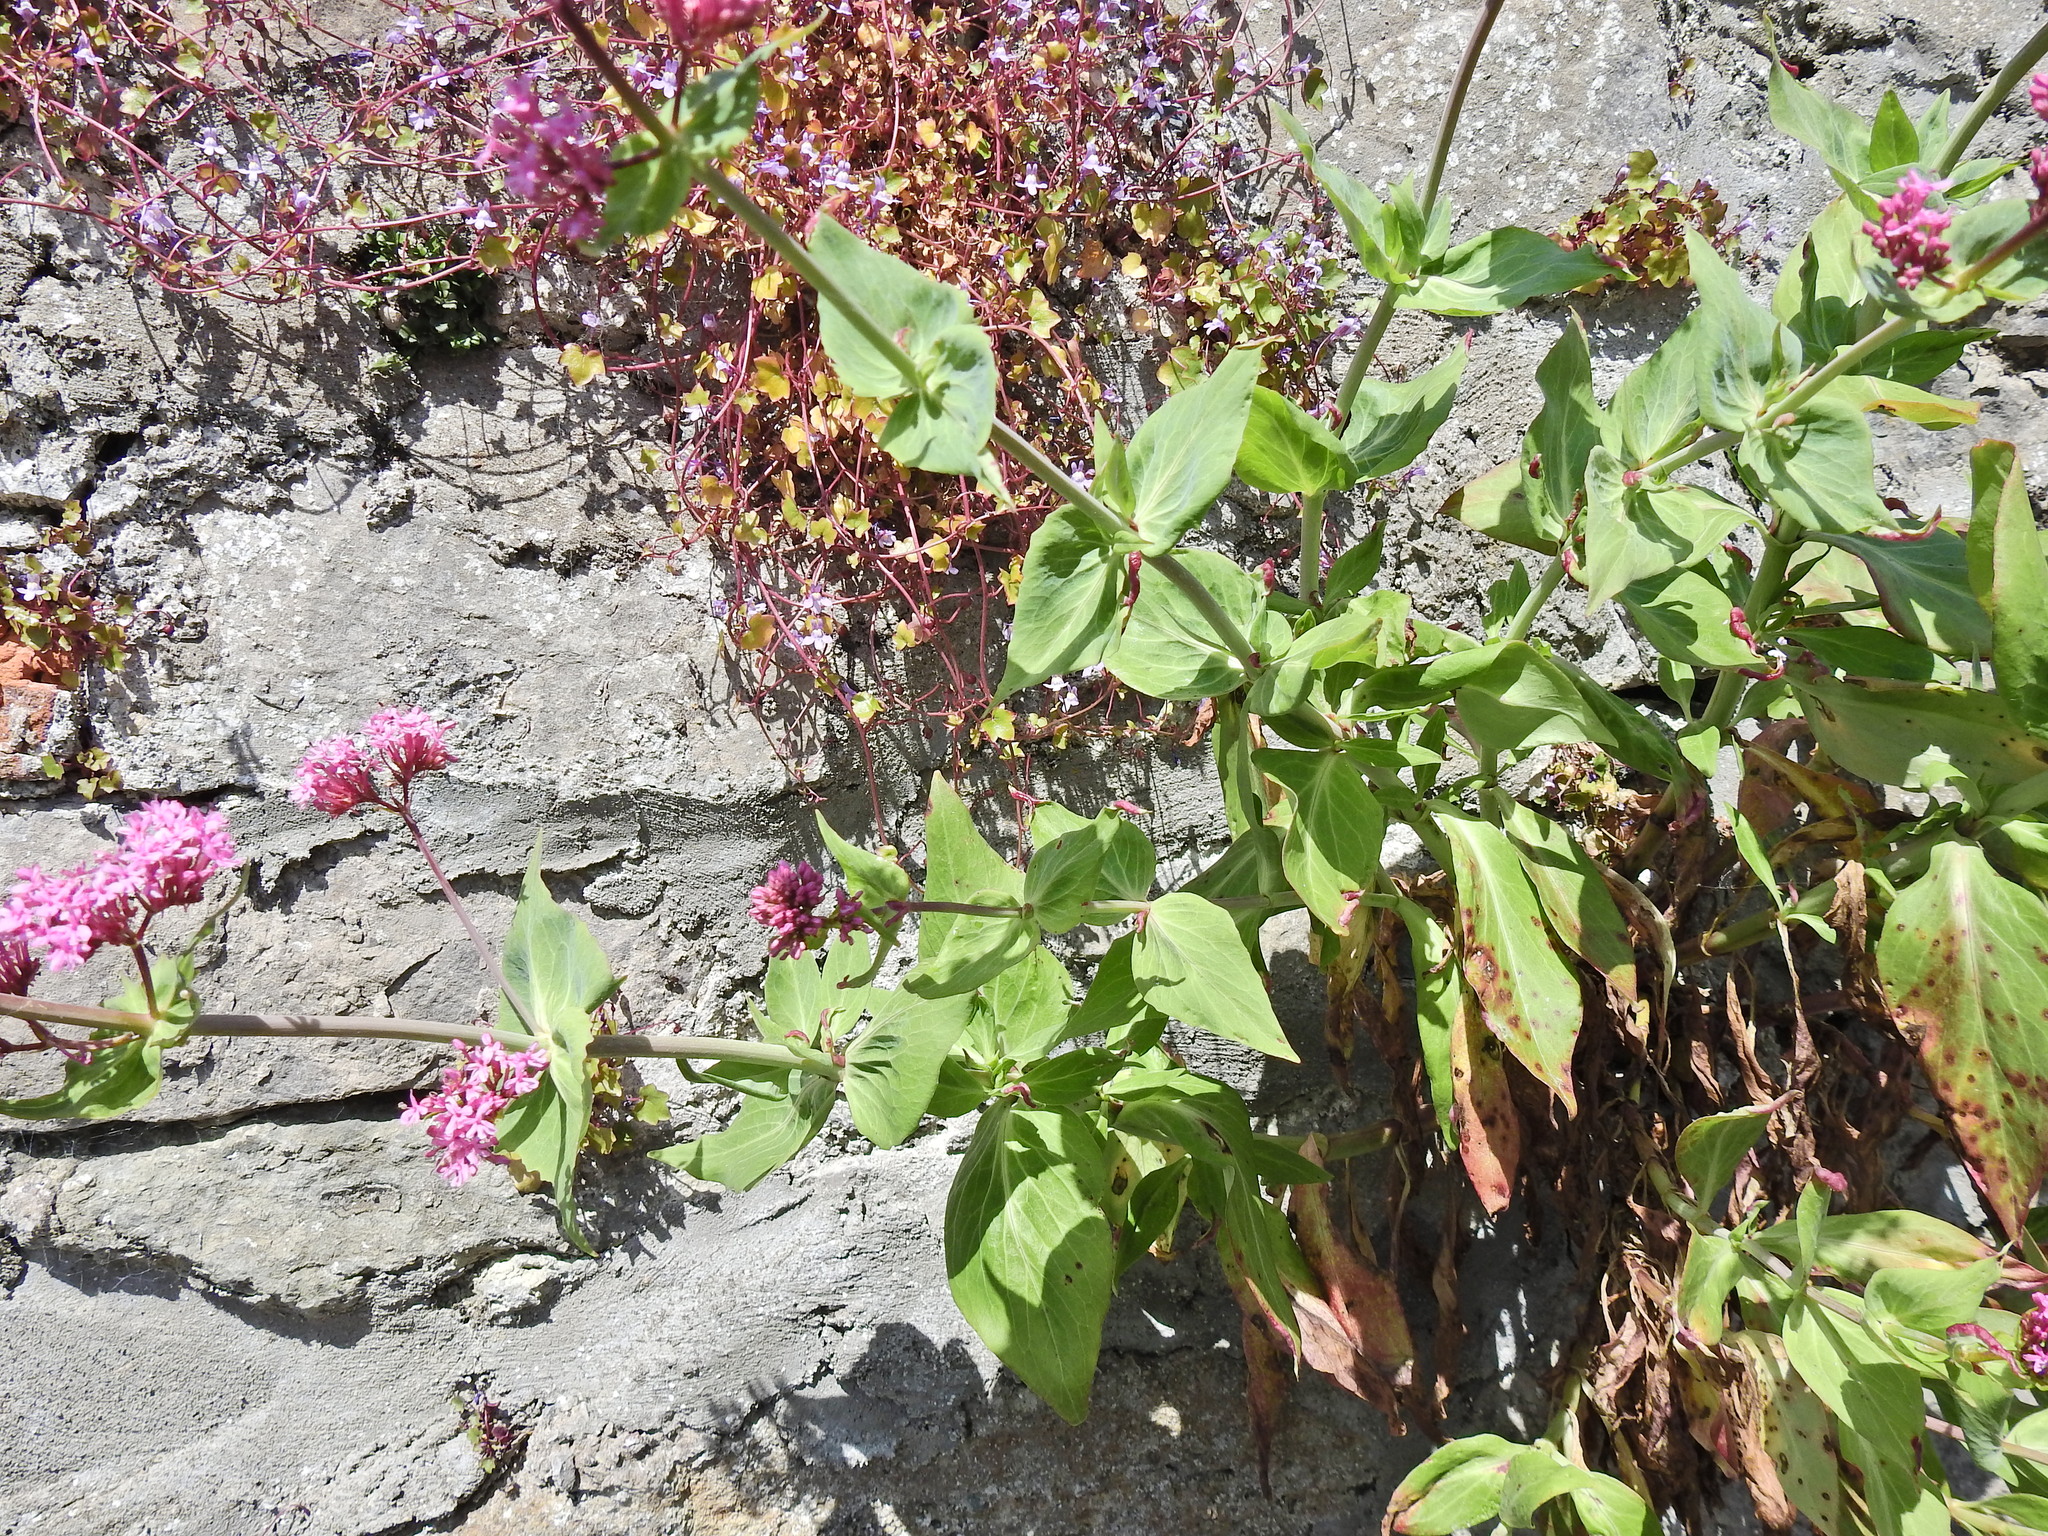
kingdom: Plantae
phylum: Tracheophyta
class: Magnoliopsida
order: Dipsacales
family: Caprifoliaceae
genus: Centranthus
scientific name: Centranthus ruber
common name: Red valerian
